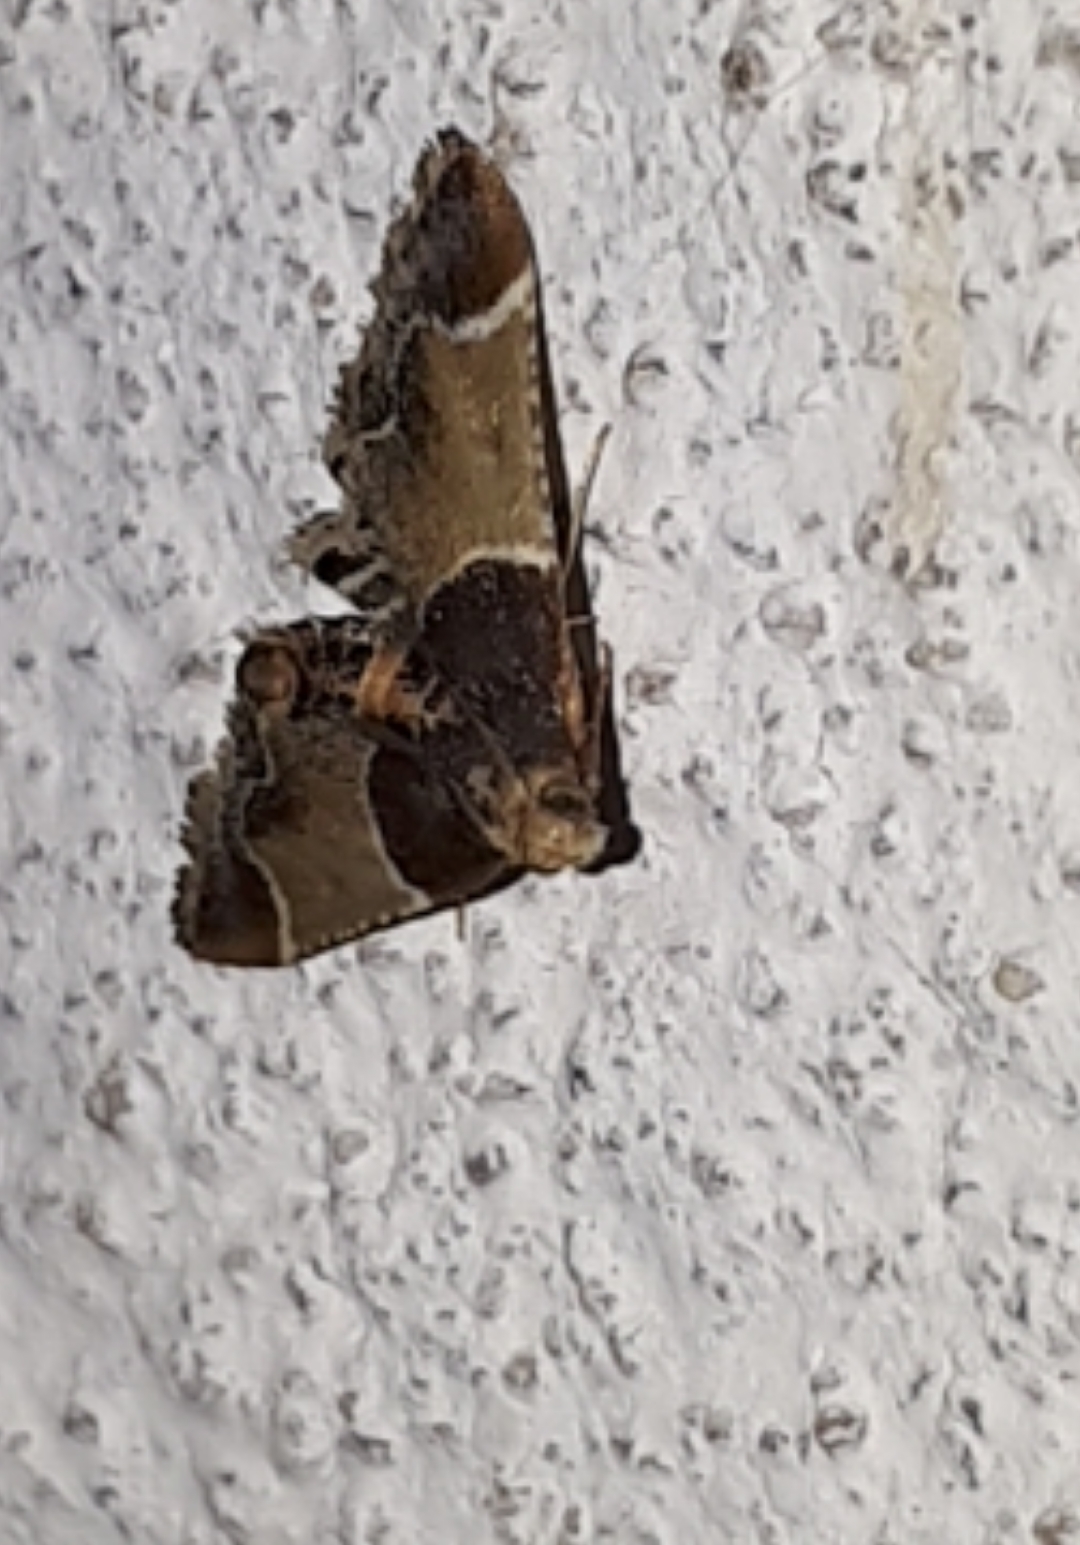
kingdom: Animalia
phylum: Arthropoda
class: Insecta
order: Lepidoptera
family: Pyralidae
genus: Pyralis
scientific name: Pyralis farinalis
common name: Meal moth
